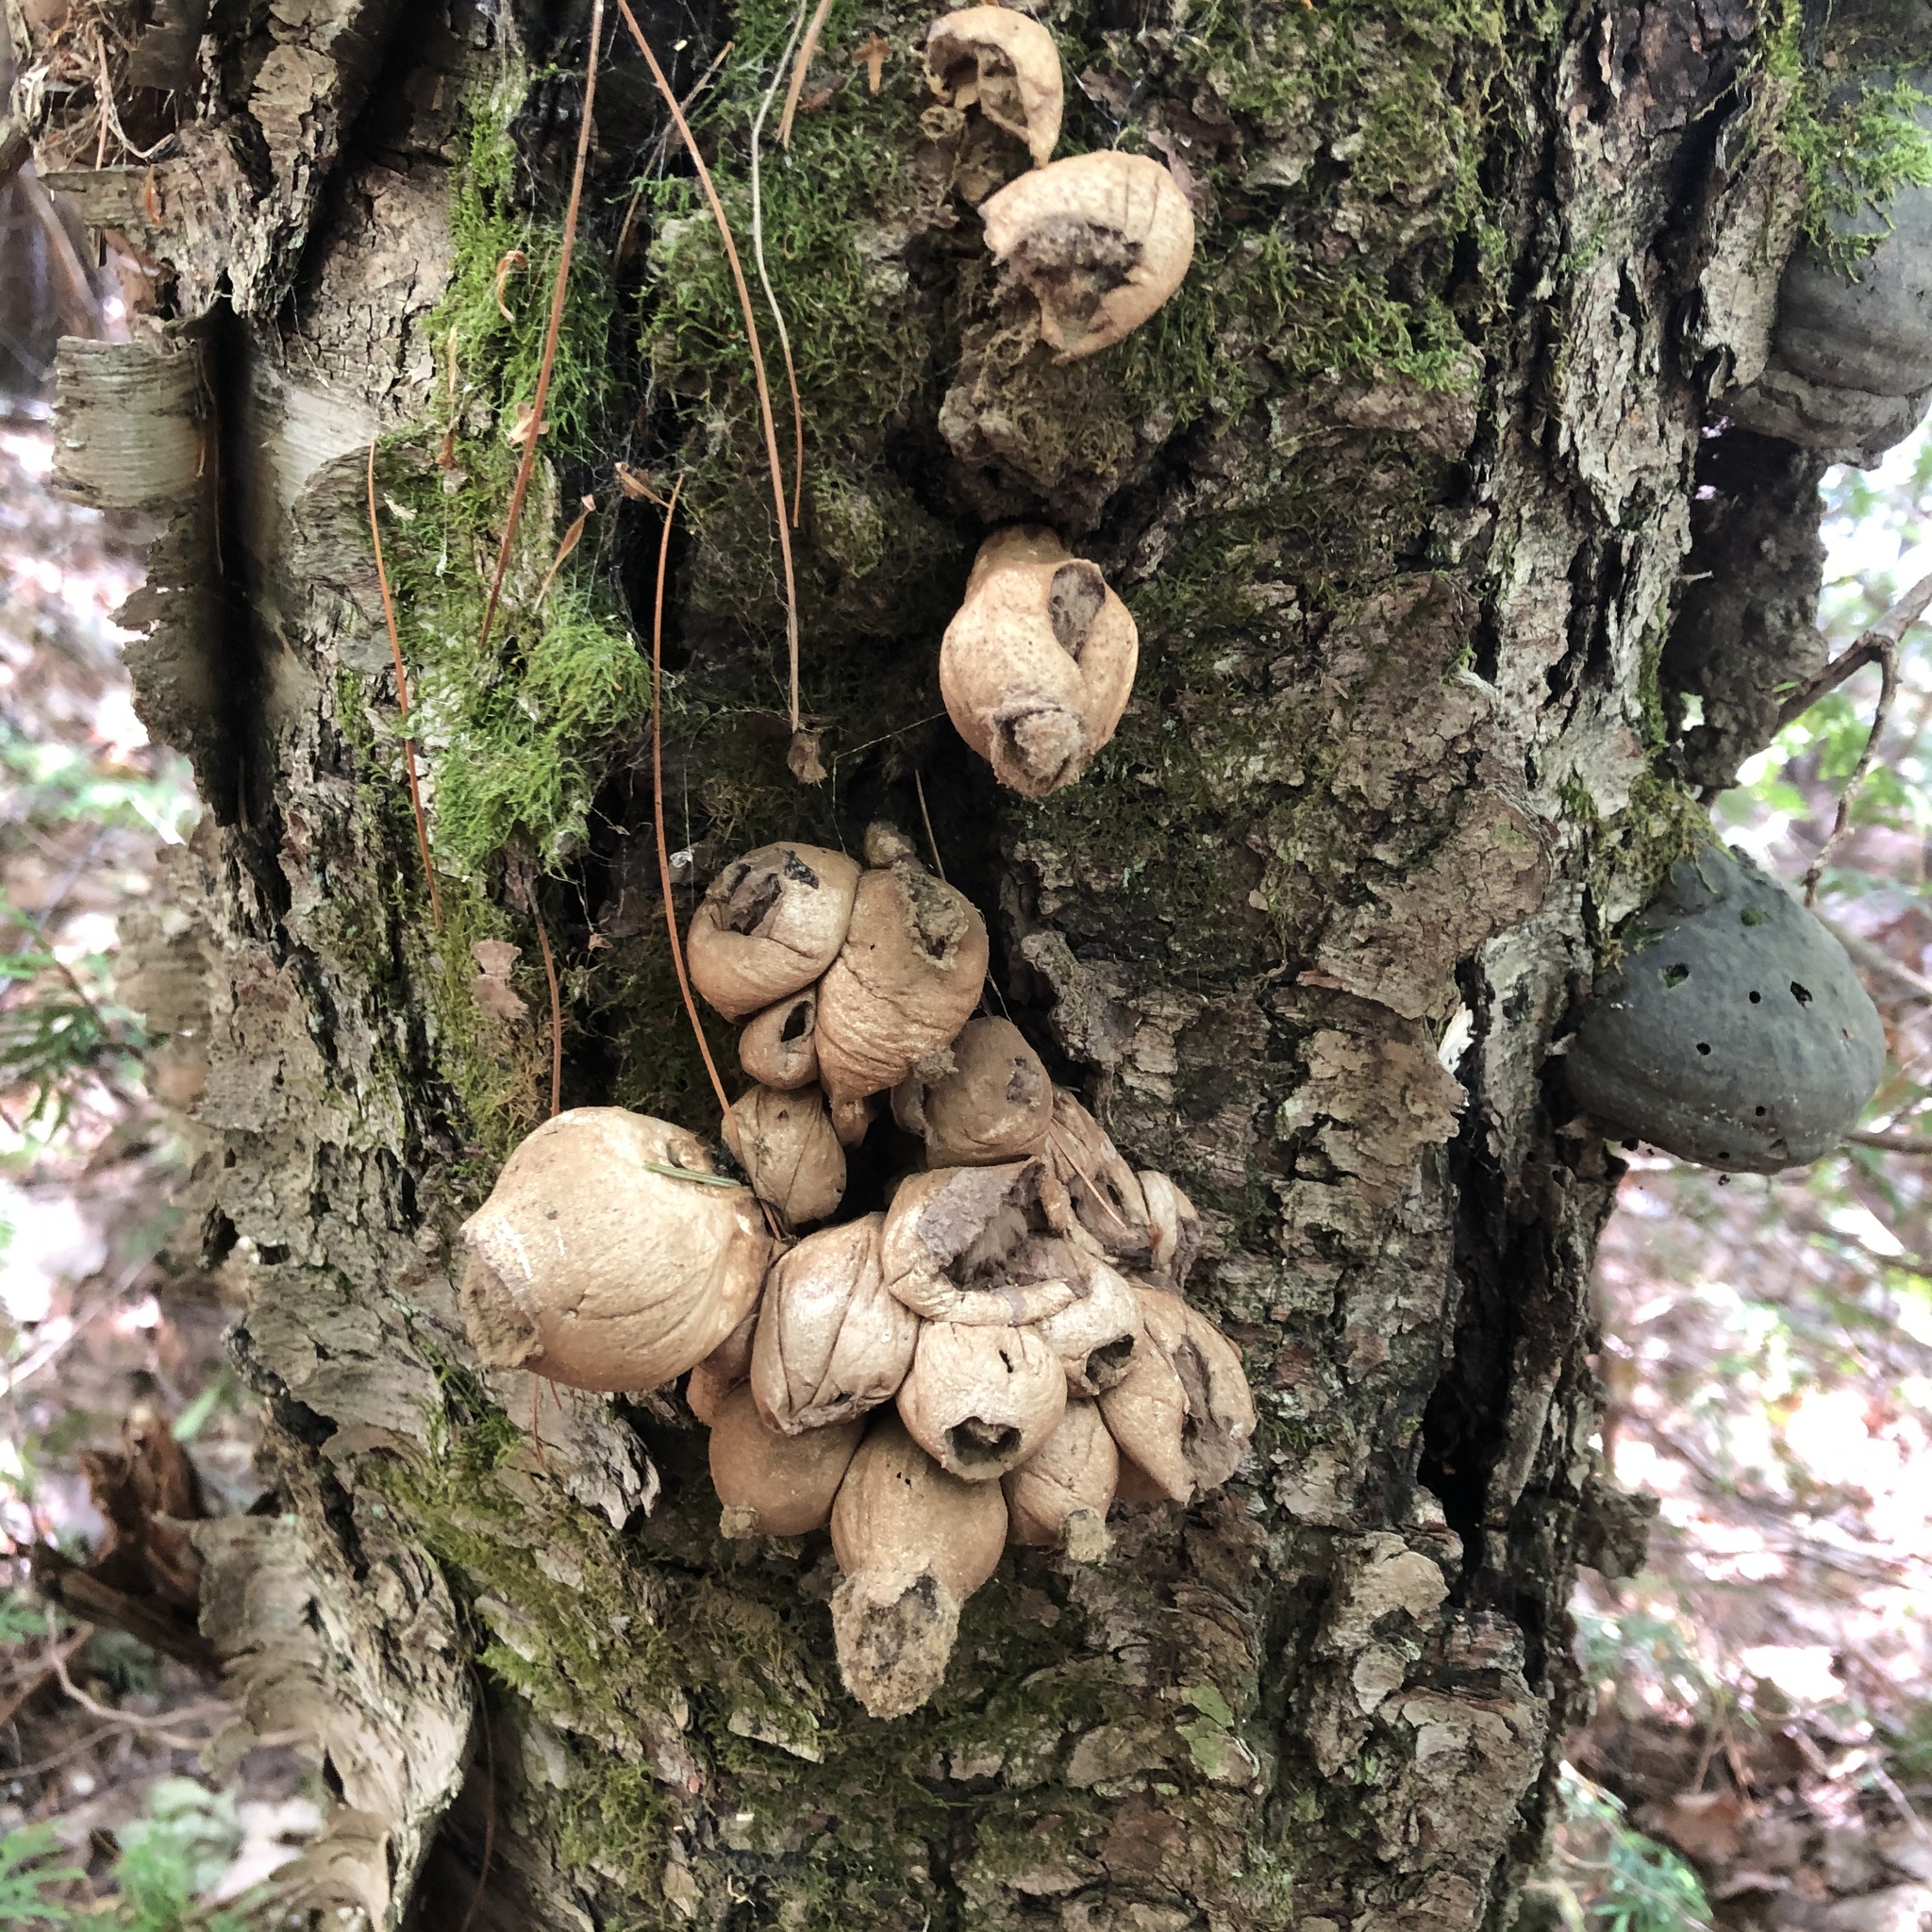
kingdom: Fungi
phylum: Basidiomycota
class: Agaricomycetes
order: Agaricales
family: Lycoperdaceae
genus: Apioperdon
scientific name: Apioperdon pyriforme
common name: Pear-shaped puffball
